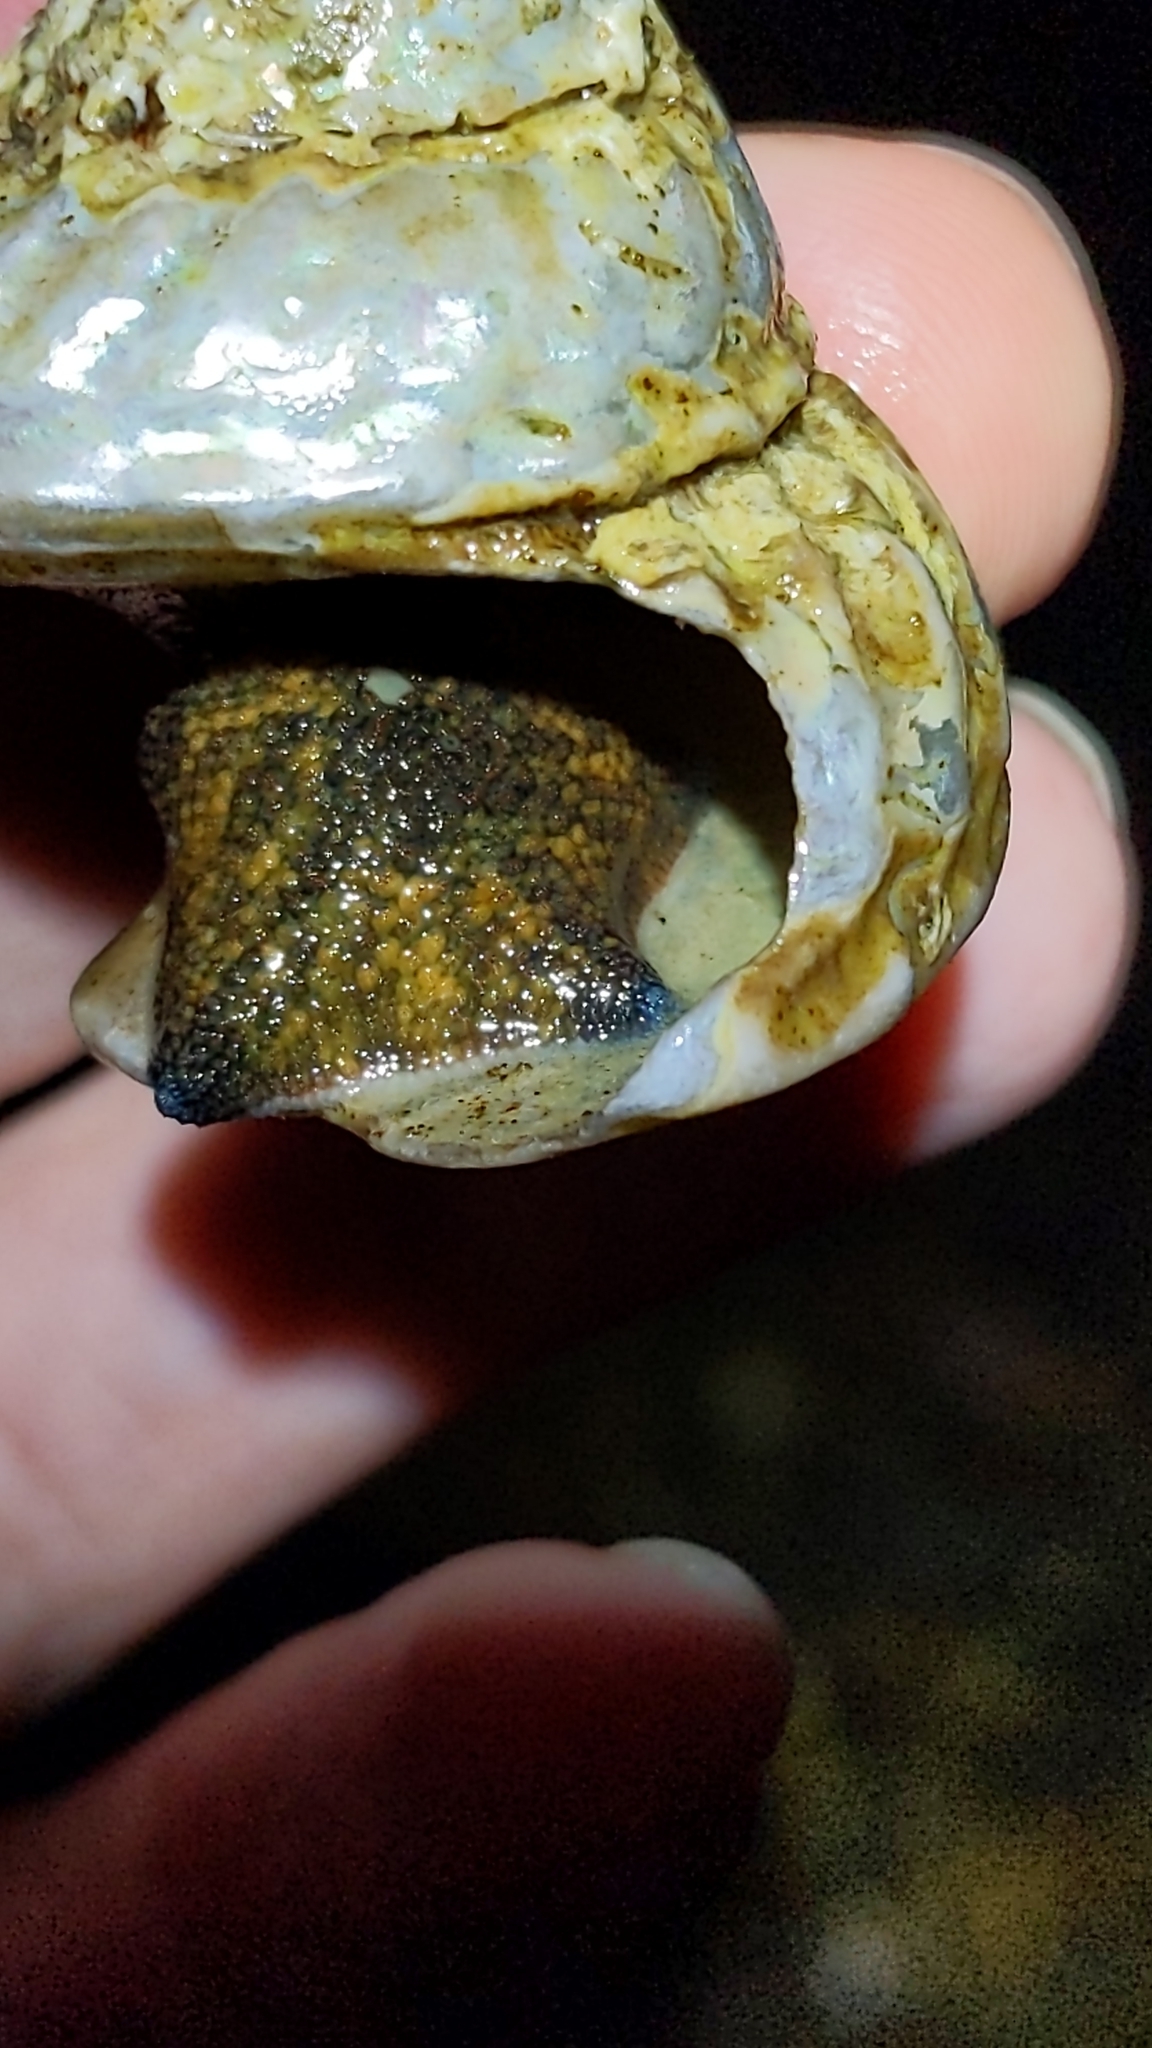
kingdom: Animalia
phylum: Echinodermata
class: Asteroidea
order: Valvatida
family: Asterinidae
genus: Patiriella
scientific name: Patiriella regularis
